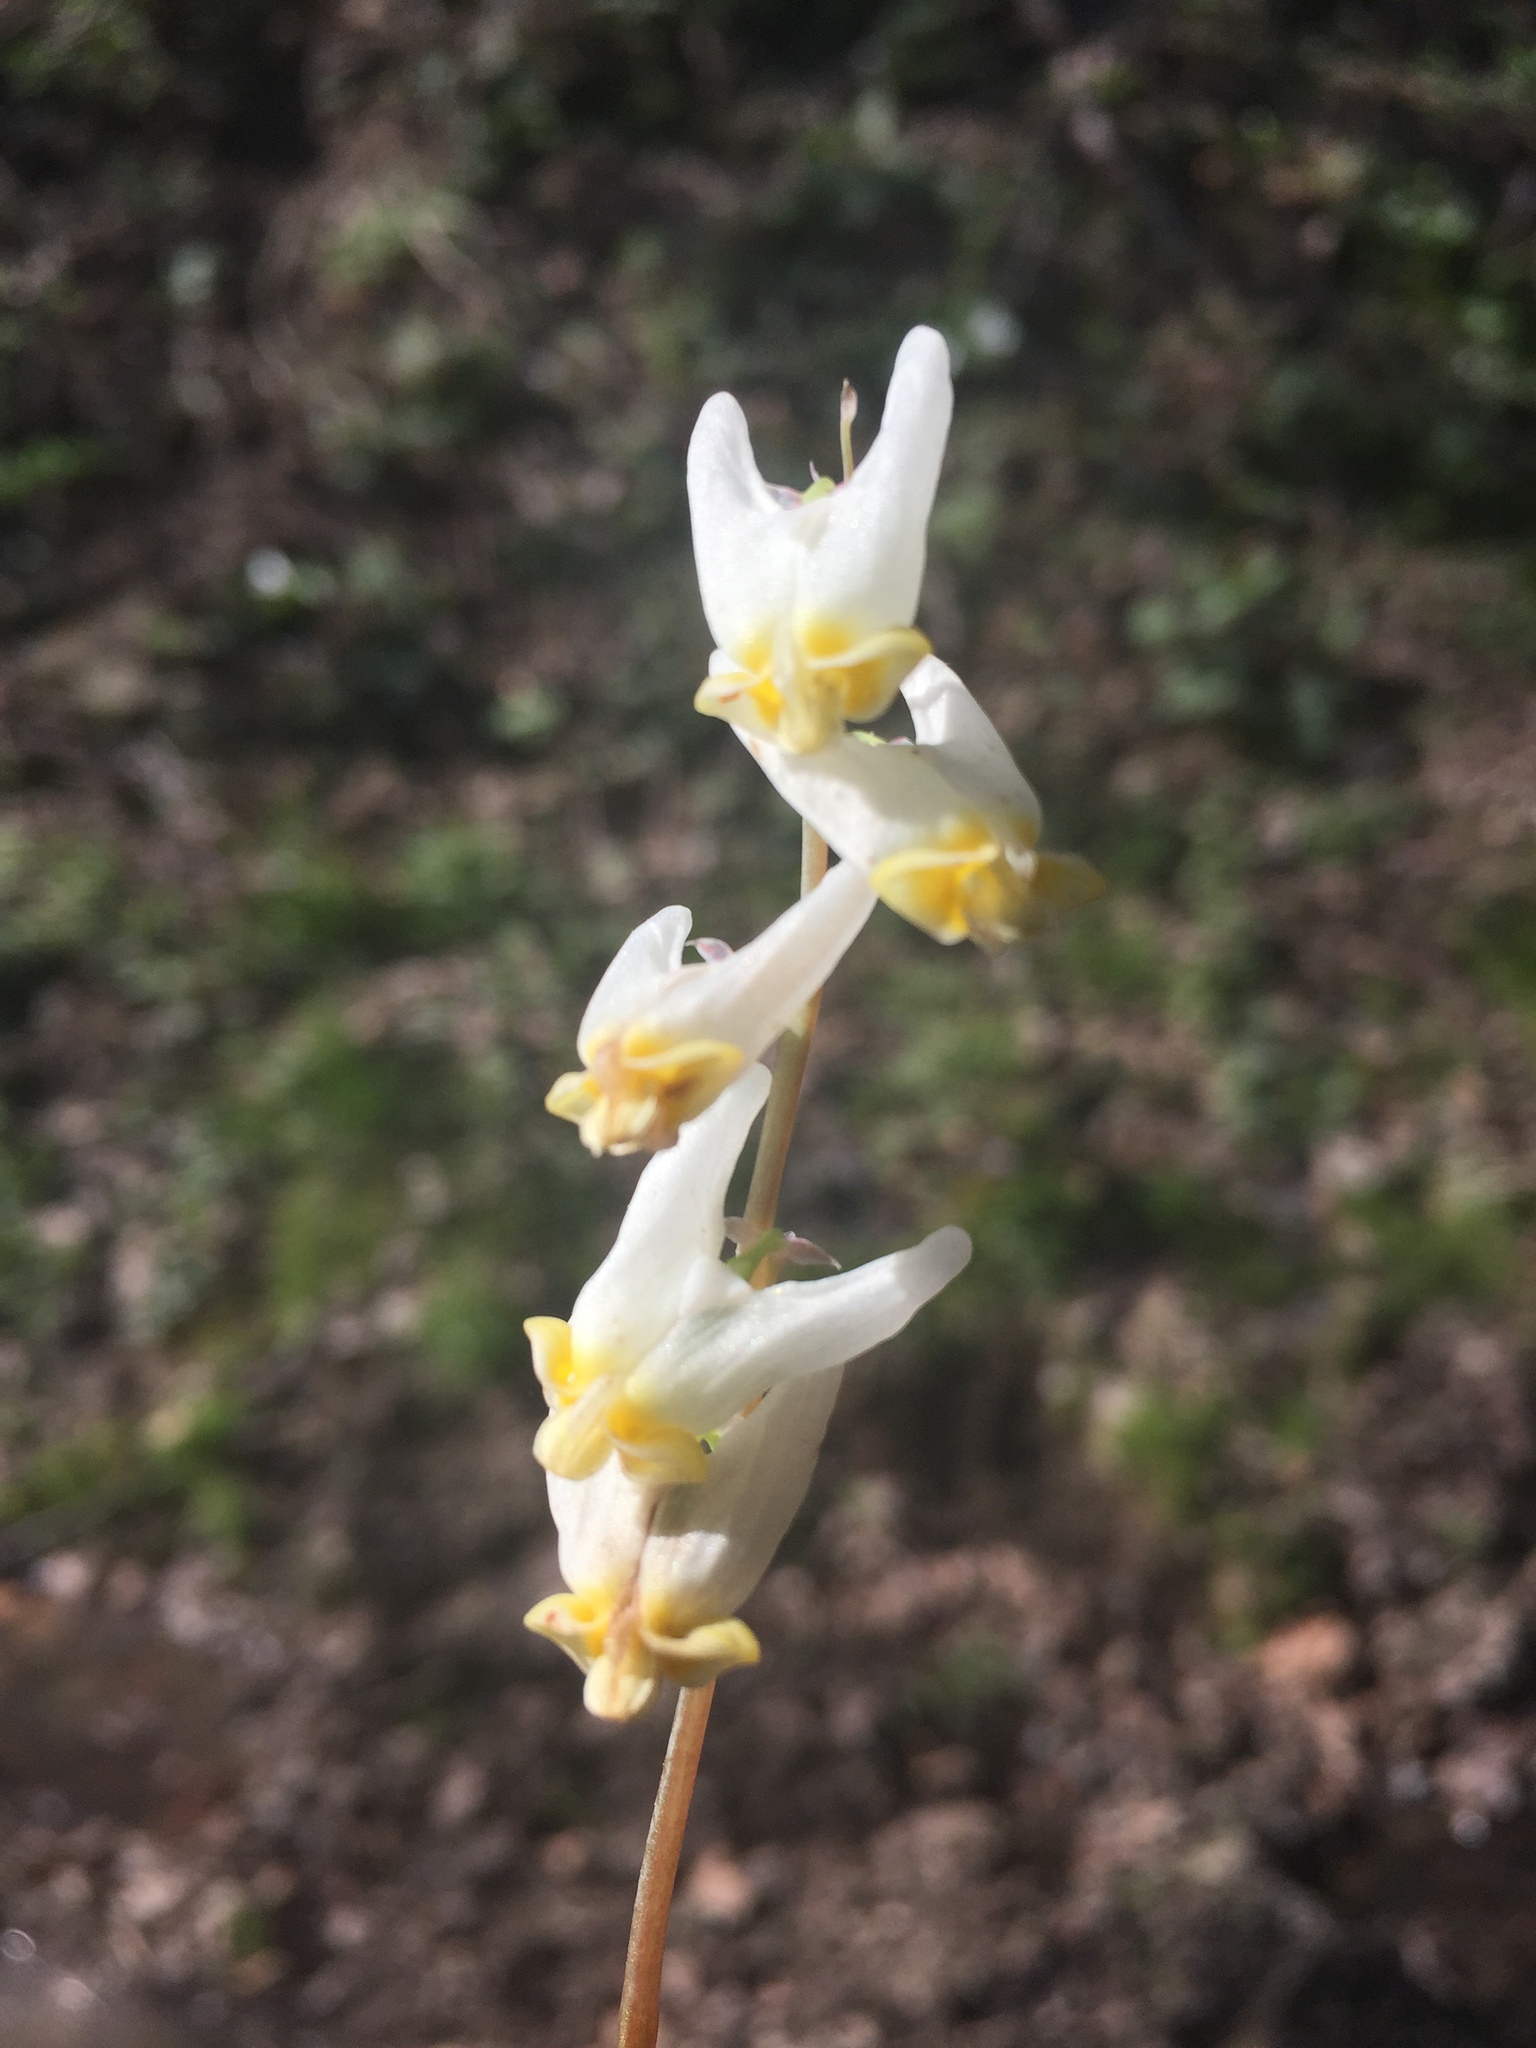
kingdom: Plantae
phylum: Tracheophyta
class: Magnoliopsida
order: Ranunculales
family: Papaveraceae
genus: Dicentra
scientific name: Dicentra cucullaria
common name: Dutchman's breeches
